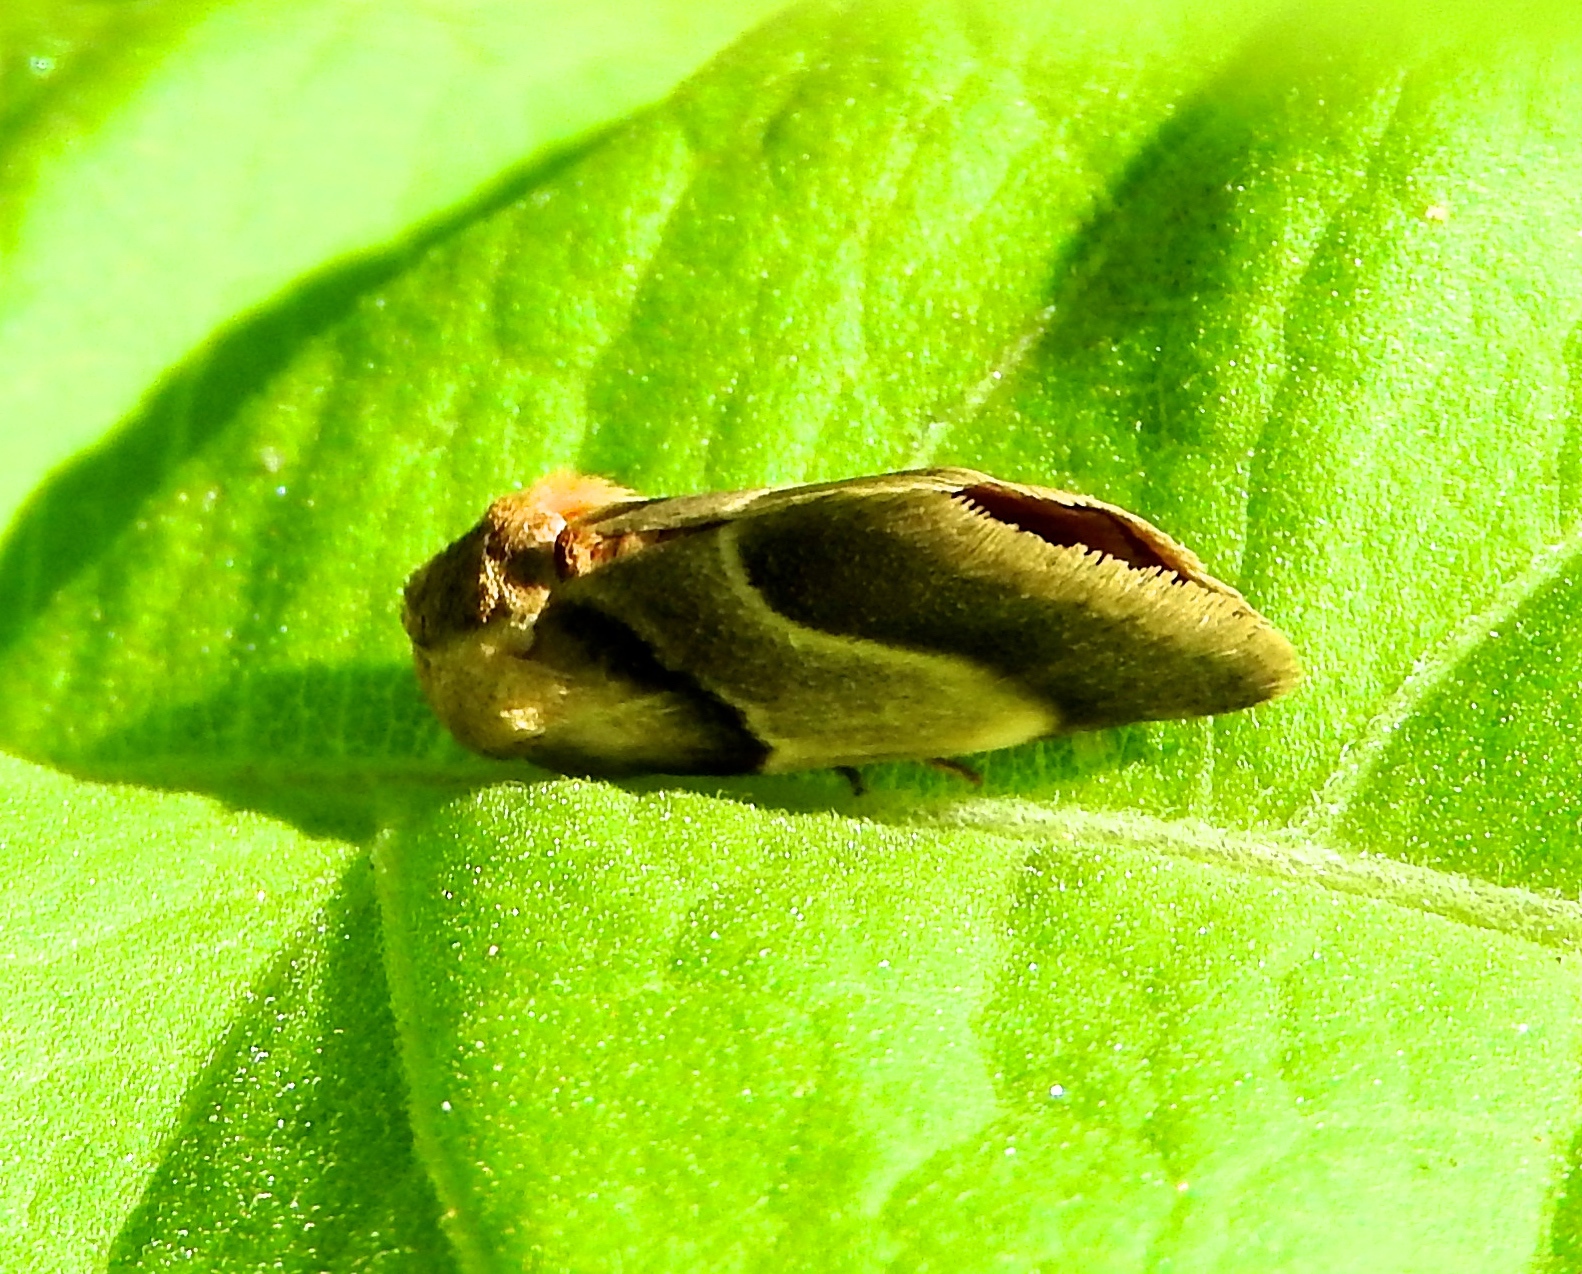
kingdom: Animalia
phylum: Arthropoda
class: Insecta
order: Lepidoptera
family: Noctuidae
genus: Chalcoecia
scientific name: Chalcoecia
